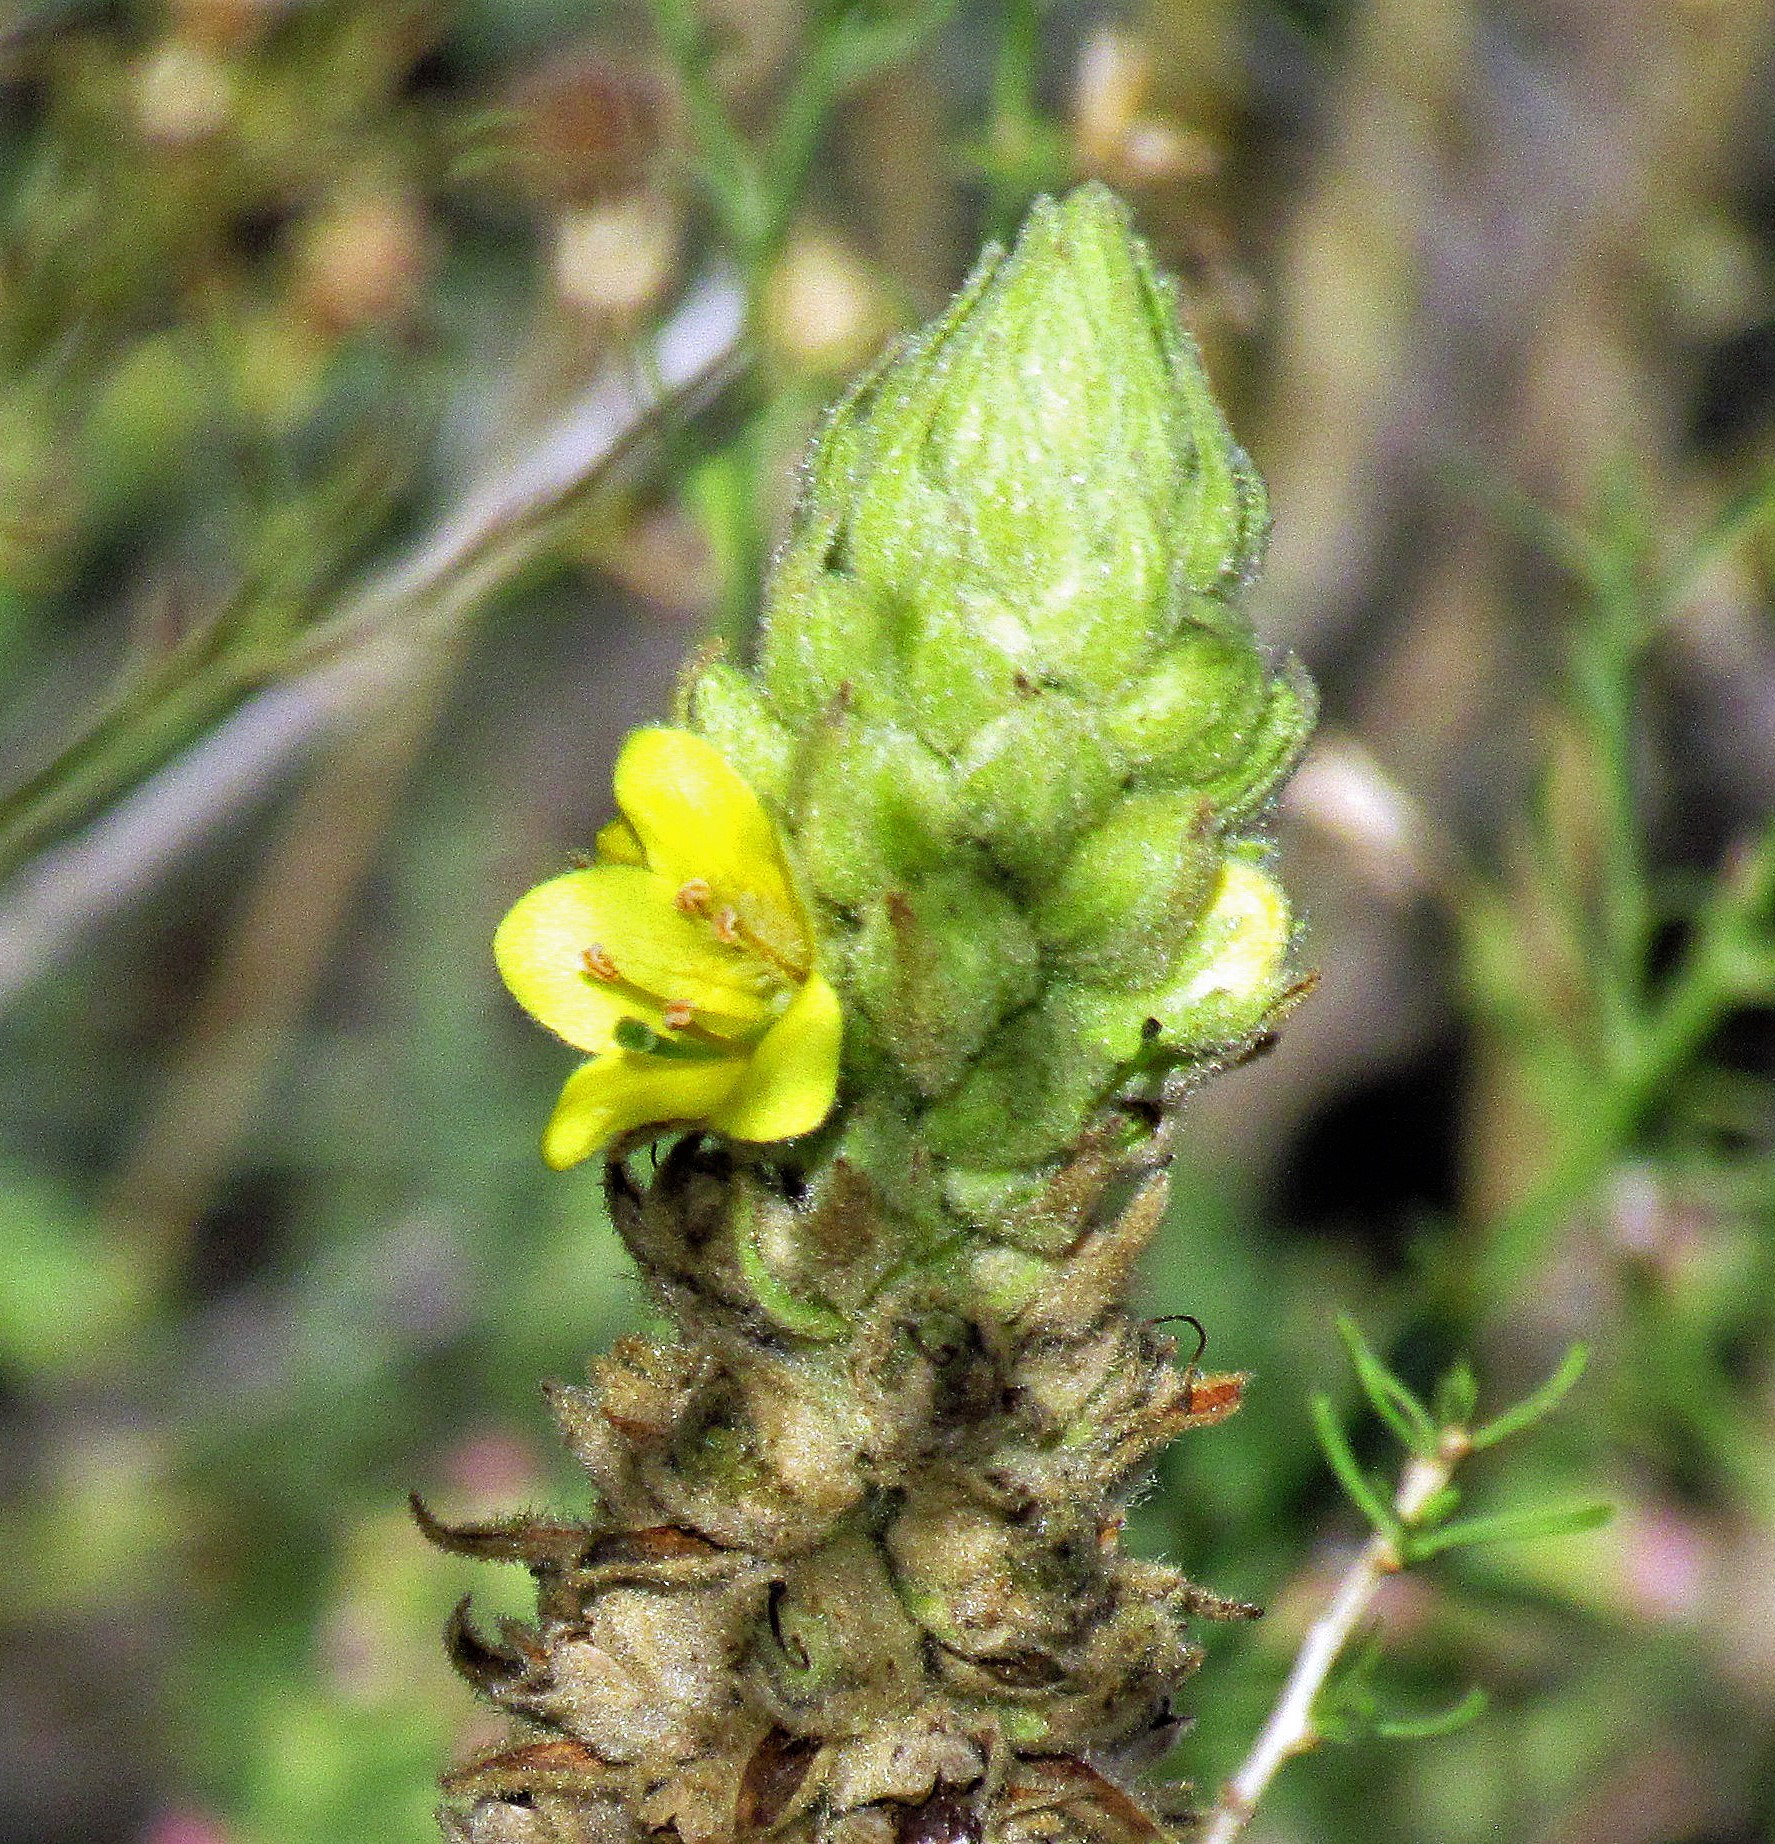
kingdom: Plantae
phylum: Tracheophyta
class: Magnoliopsida
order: Lamiales
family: Scrophulariaceae
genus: Verbascum
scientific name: Verbascum thapsus
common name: Common mullein
